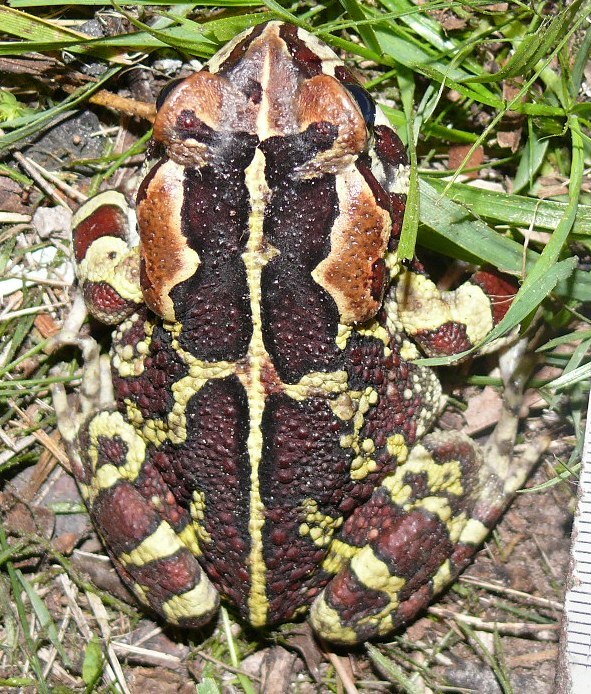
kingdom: Animalia
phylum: Chordata
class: Amphibia
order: Anura
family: Bufonidae
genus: Sclerophrys
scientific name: Sclerophrys pantherina
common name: Panther toad
